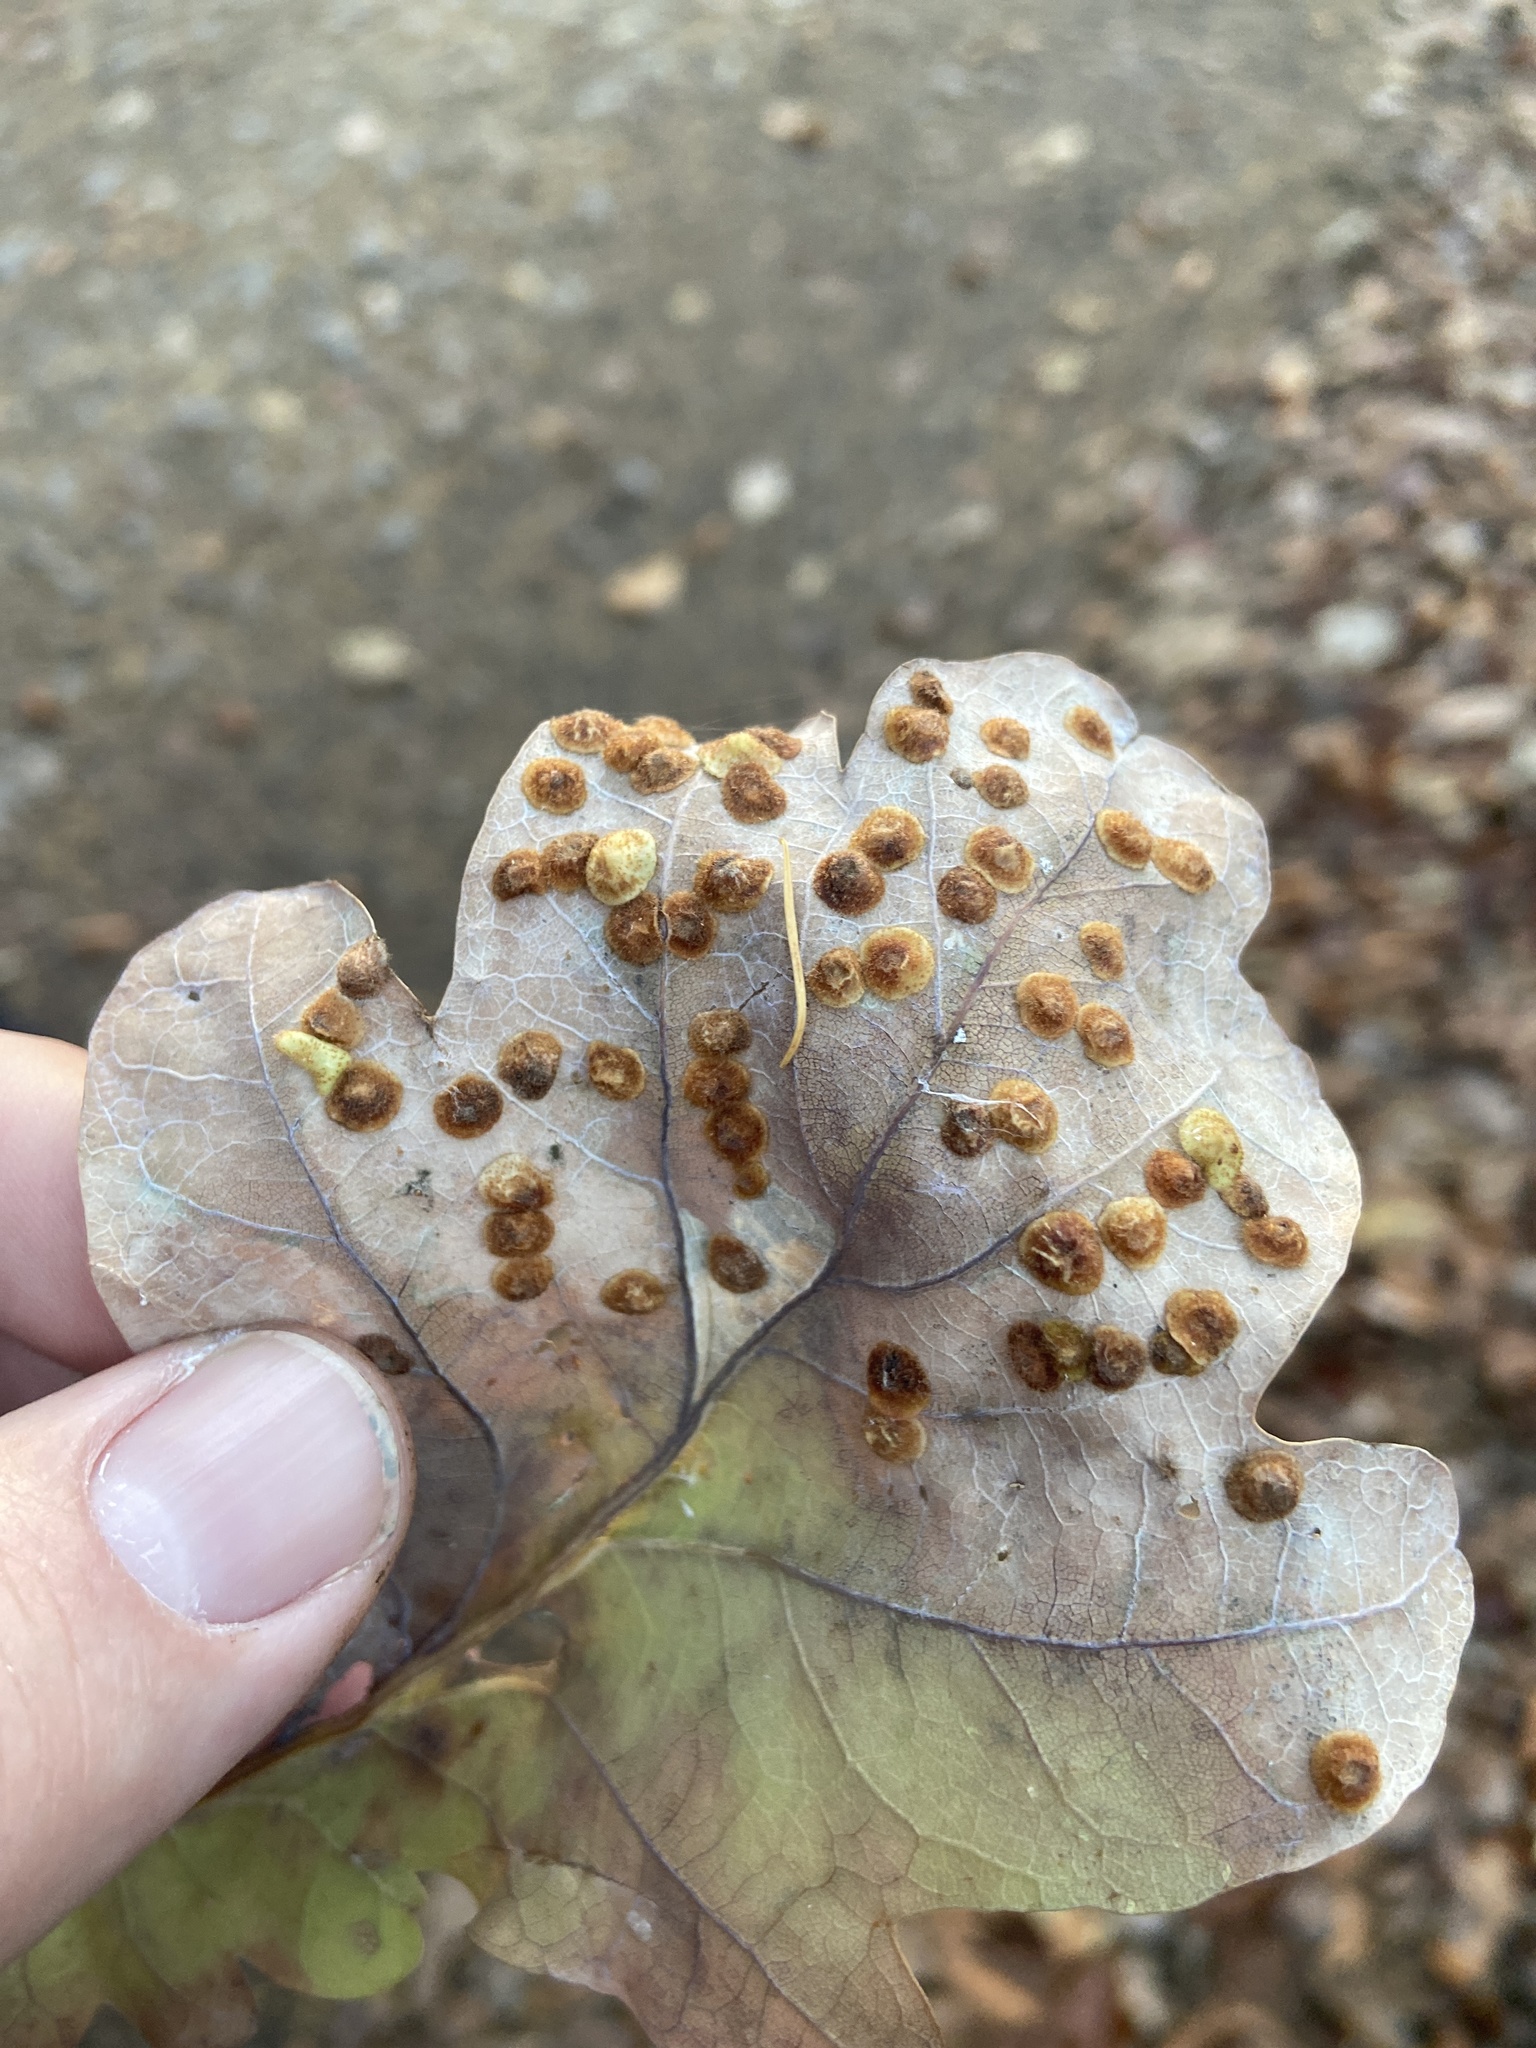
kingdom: Animalia
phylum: Arthropoda
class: Insecta
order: Hymenoptera
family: Cynipidae
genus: Neuroterus
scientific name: Neuroterus quercusbaccarum
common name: Common spangle gall
